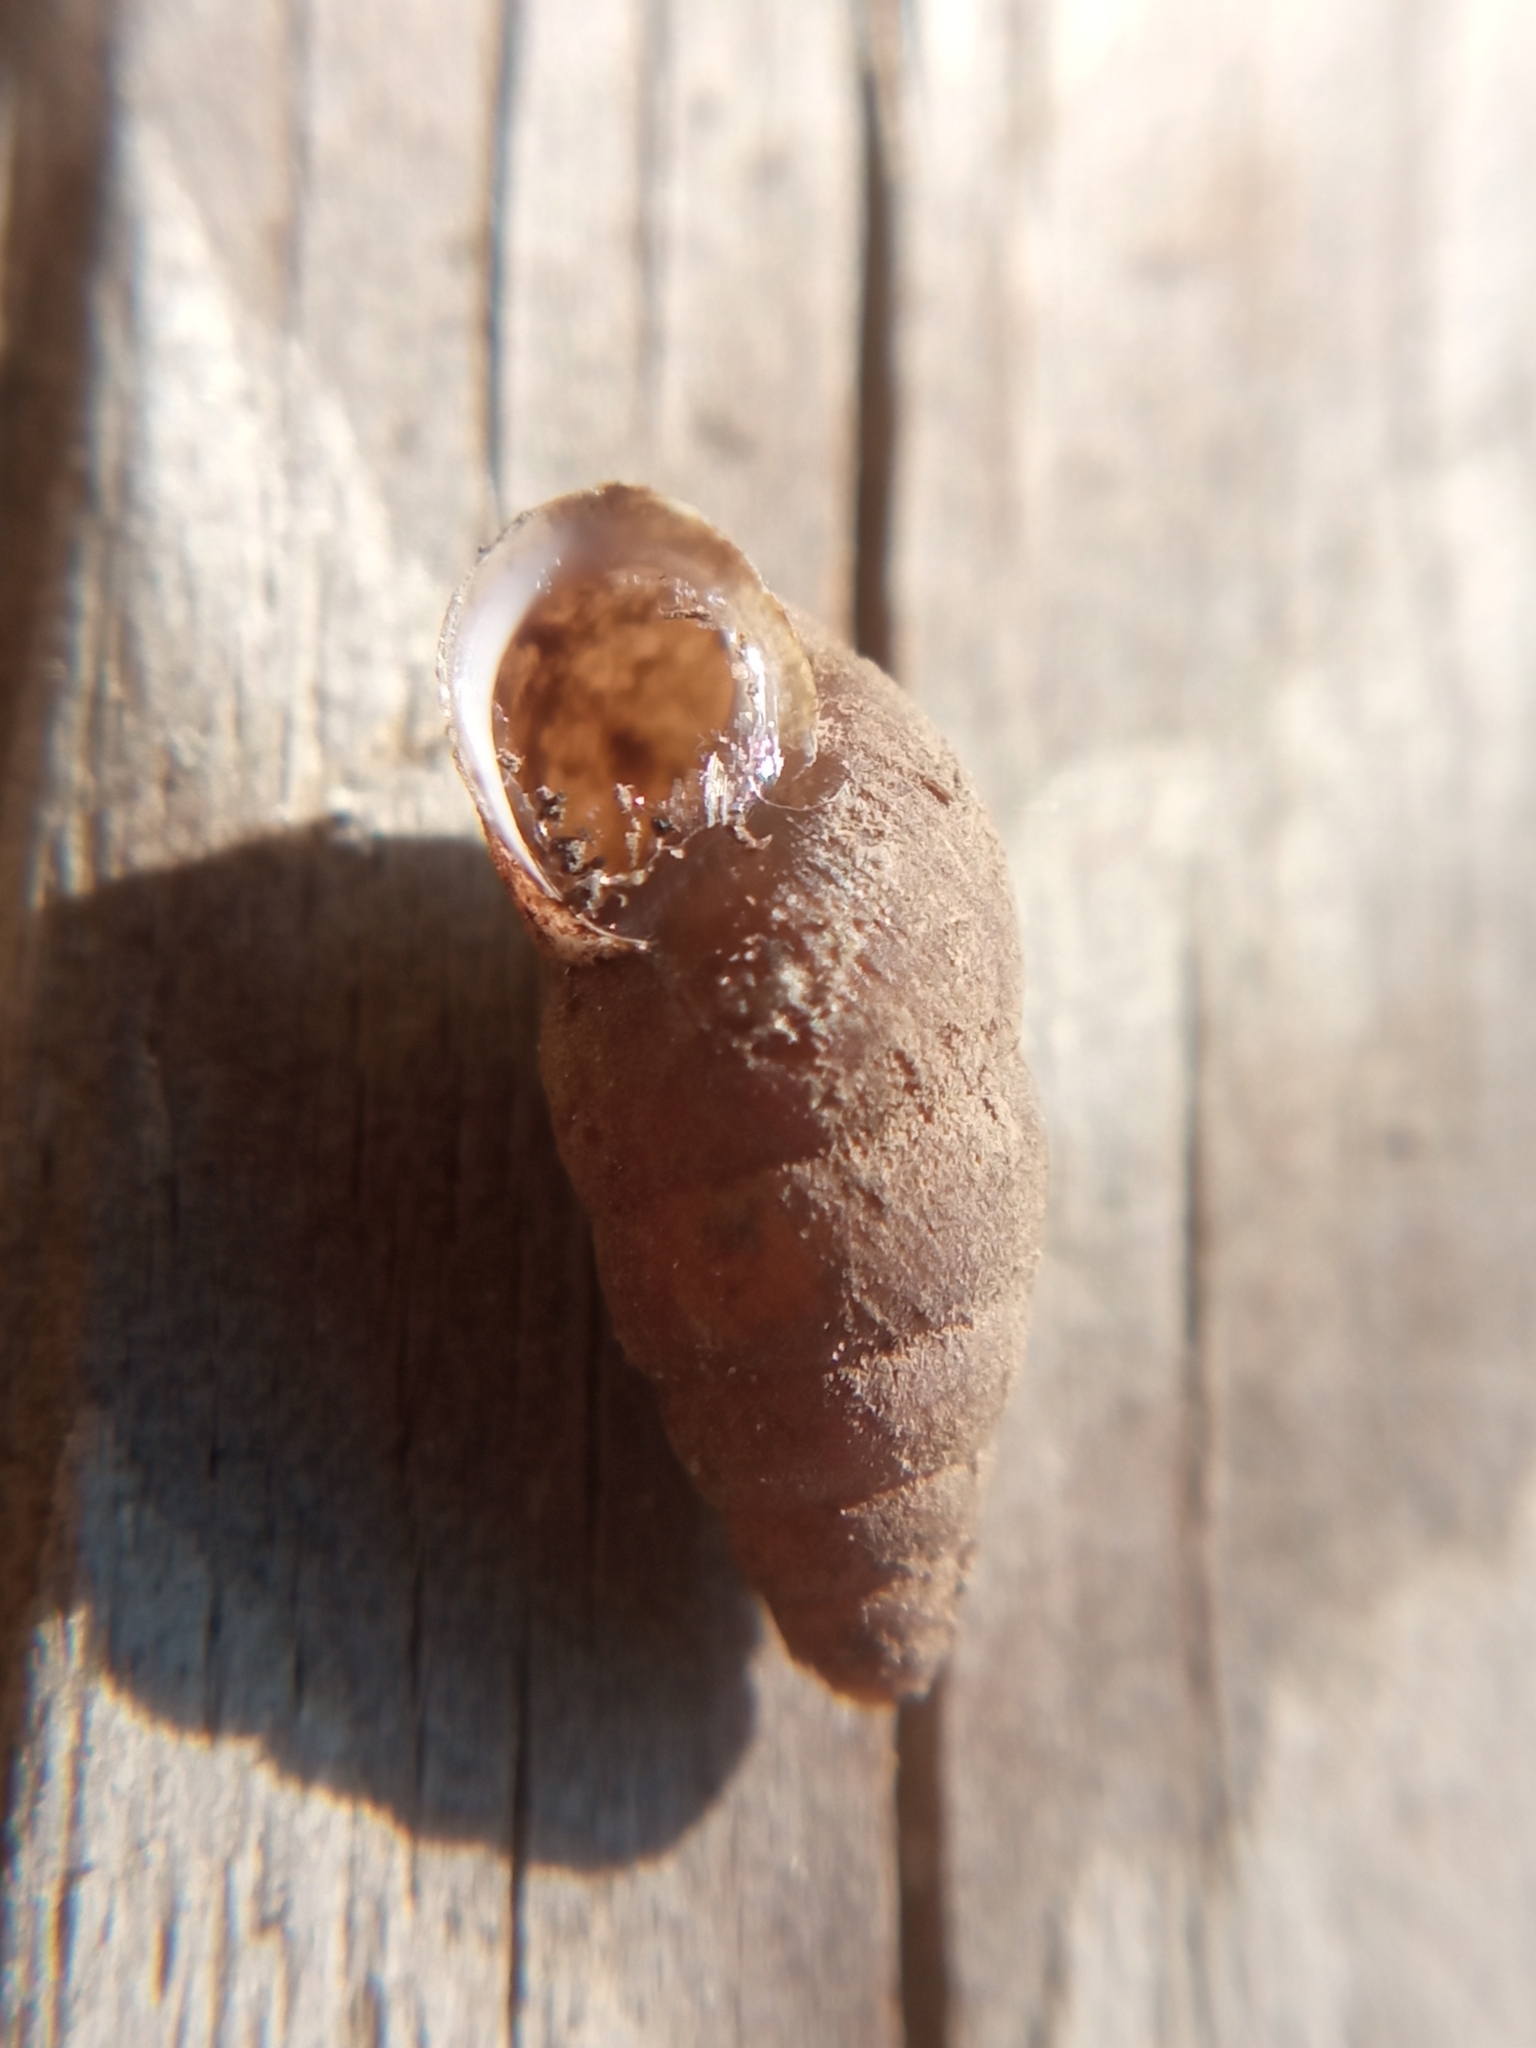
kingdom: Animalia
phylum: Mollusca
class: Gastropoda
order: Stylommatophora
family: Enidae
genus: Merdigera
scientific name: Merdigera obscura
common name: Lesser bulin
